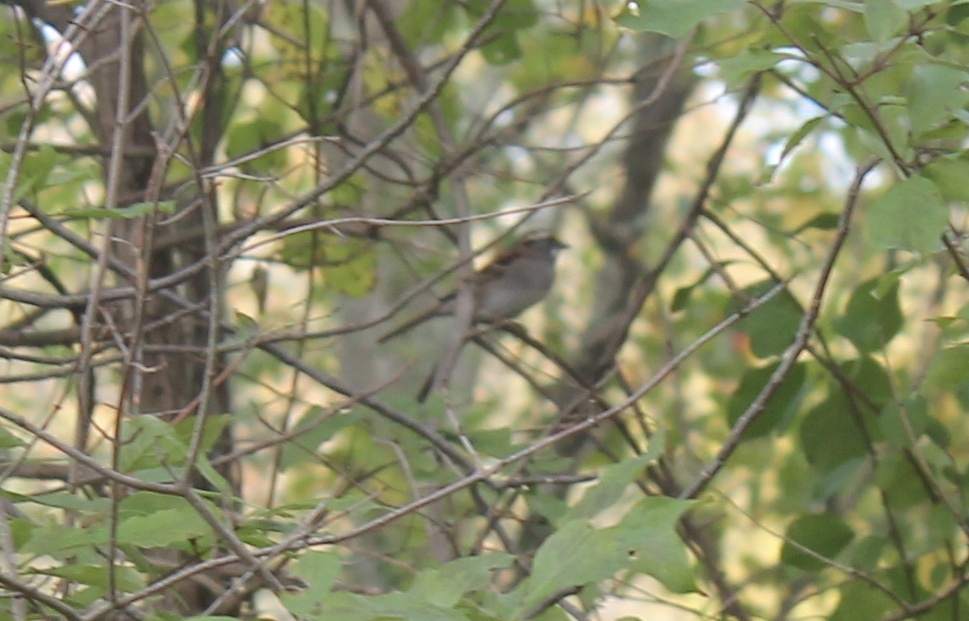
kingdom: Animalia
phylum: Chordata
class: Aves
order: Passeriformes
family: Passerellidae
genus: Zonotrichia
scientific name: Zonotrichia albicollis
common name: White-throated sparrow
